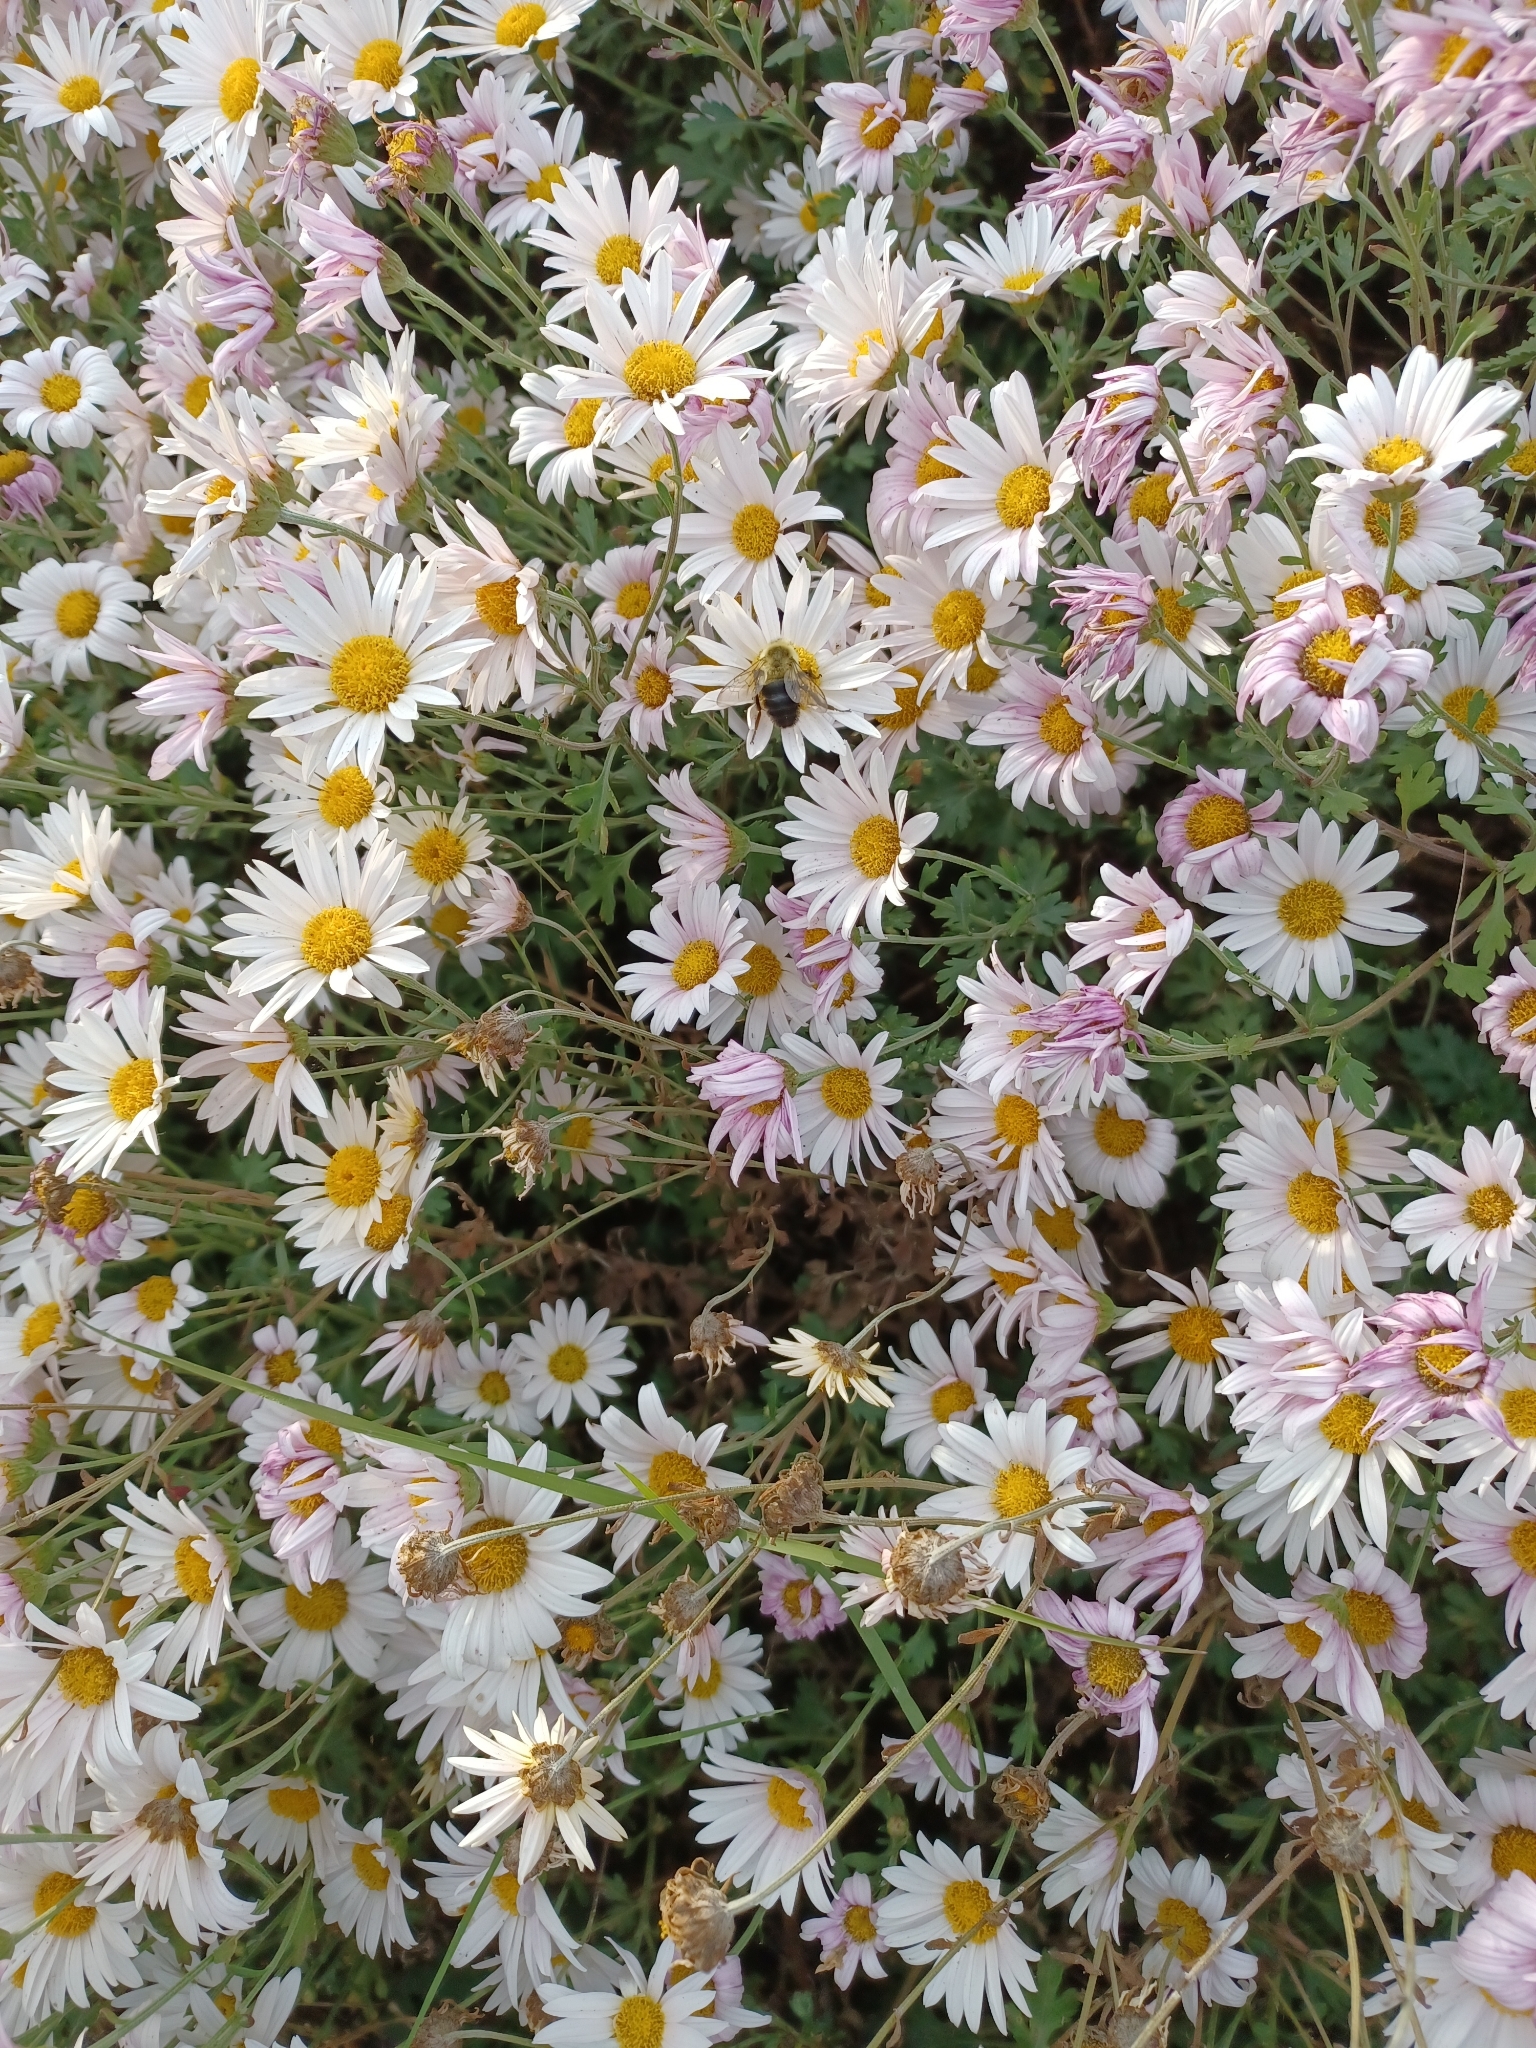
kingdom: Animalia
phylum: Arthropoda
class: Insecta
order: Hymenoptera
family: Apidae
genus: Bombus
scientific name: Bombus impatiens
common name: Common eastern bumble bee
